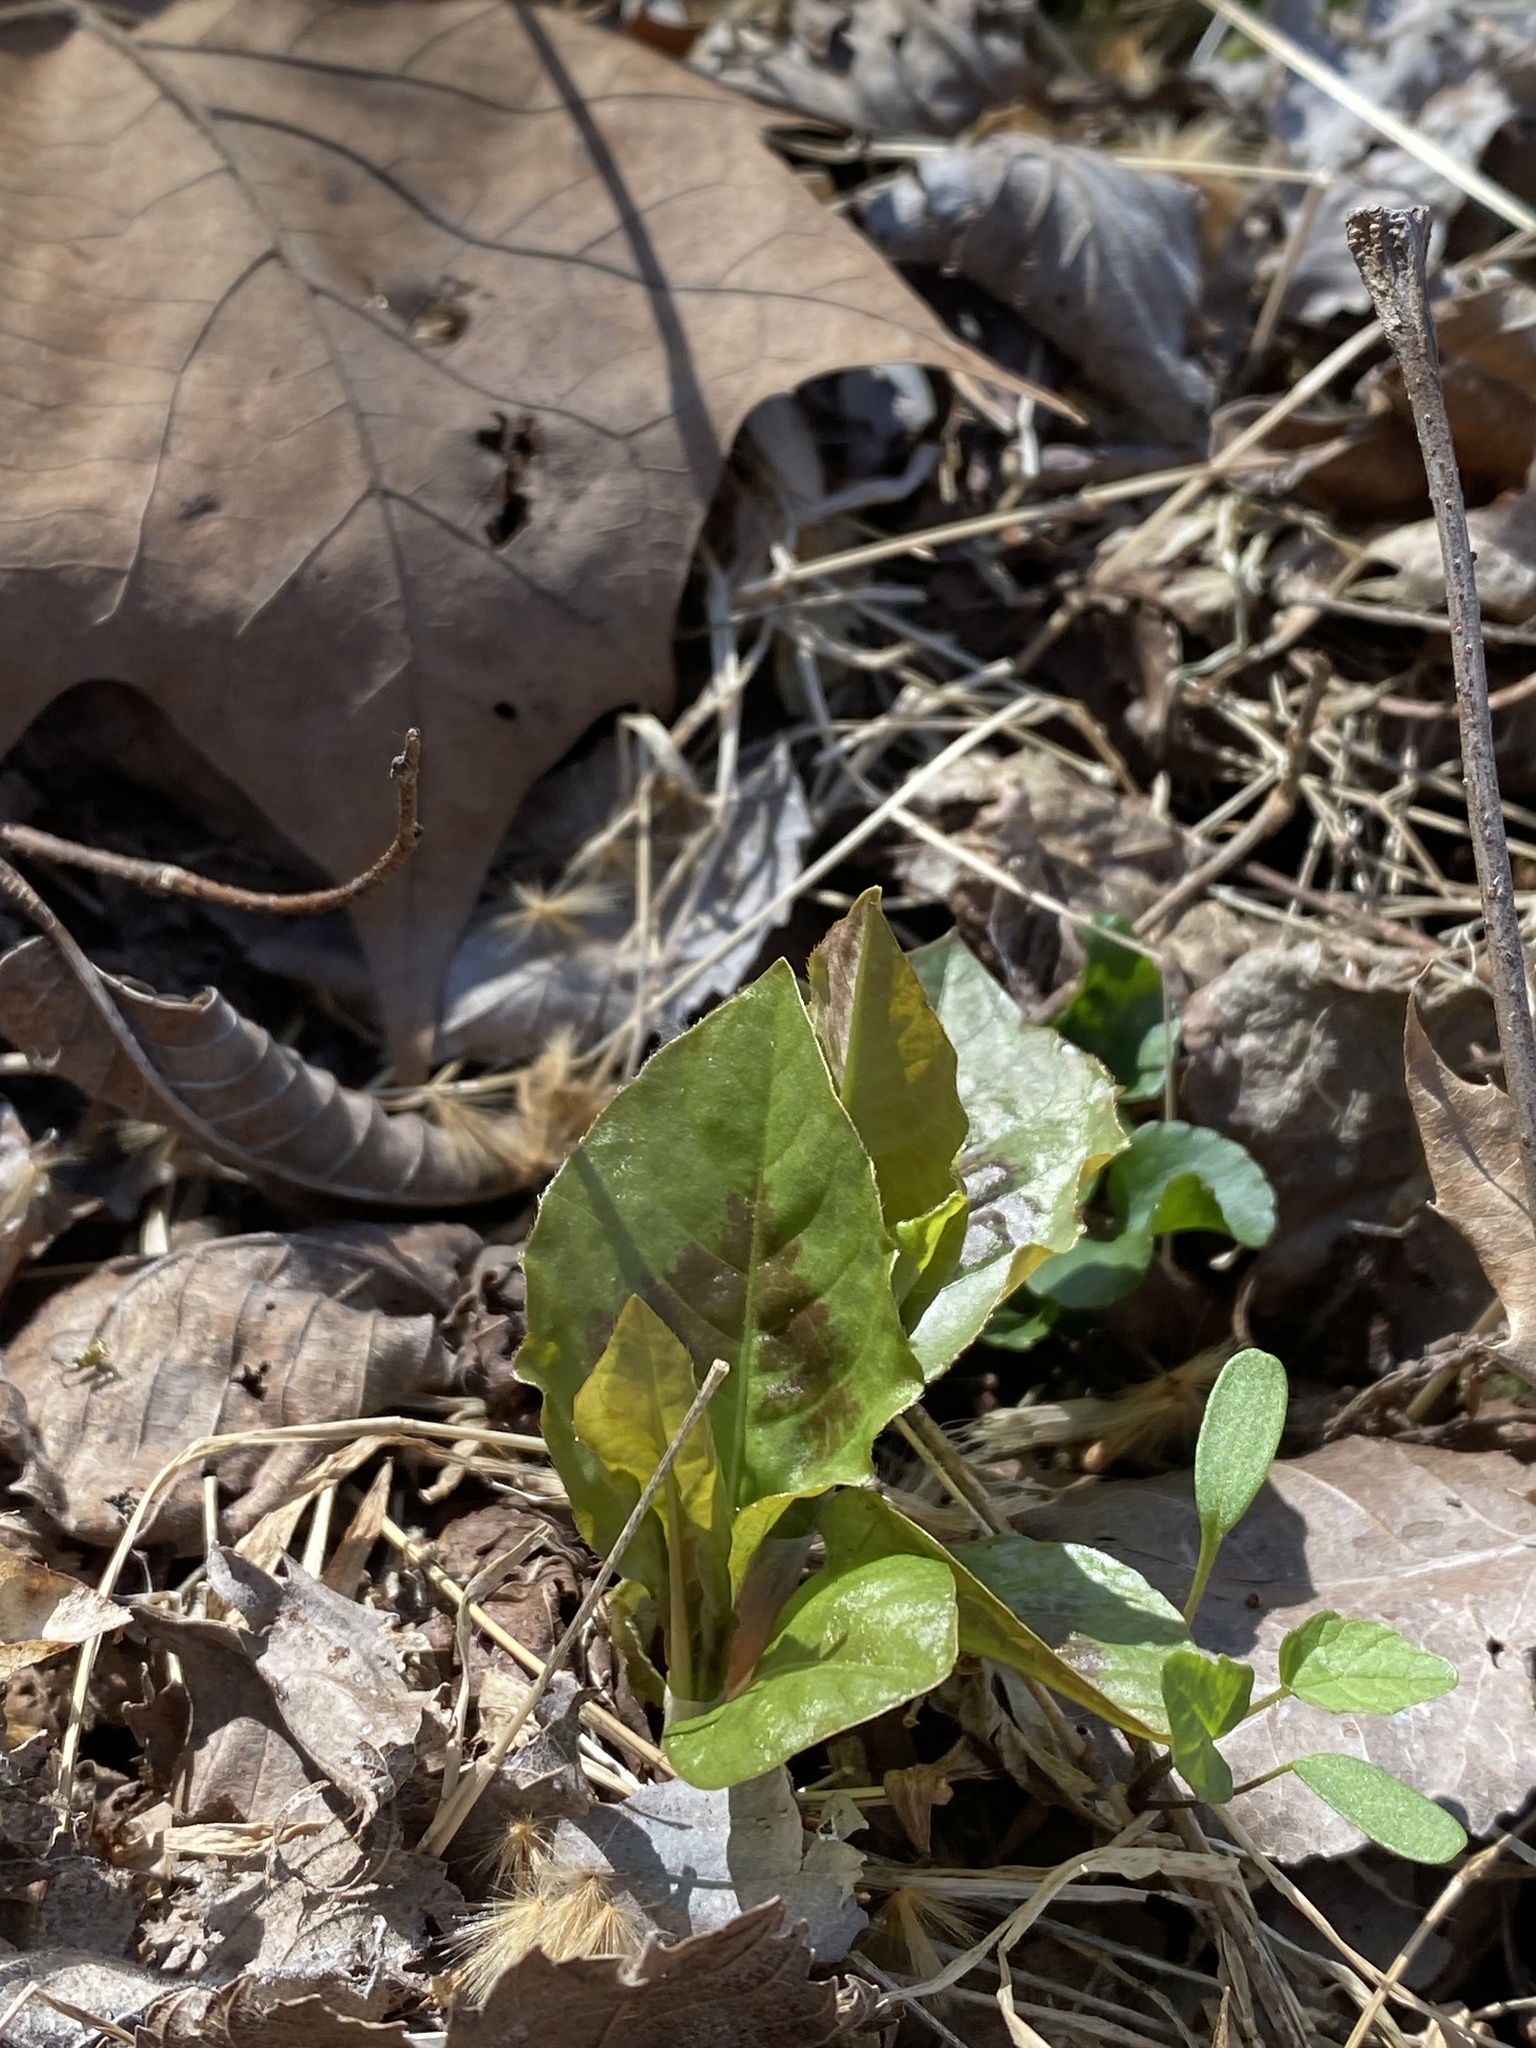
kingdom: Plantae
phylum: Tracheophyta
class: Magnoliopsida
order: Caryophyllales
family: Polygonaceae
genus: Persicaria
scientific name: Persicaria virginiana
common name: Jumpseed
